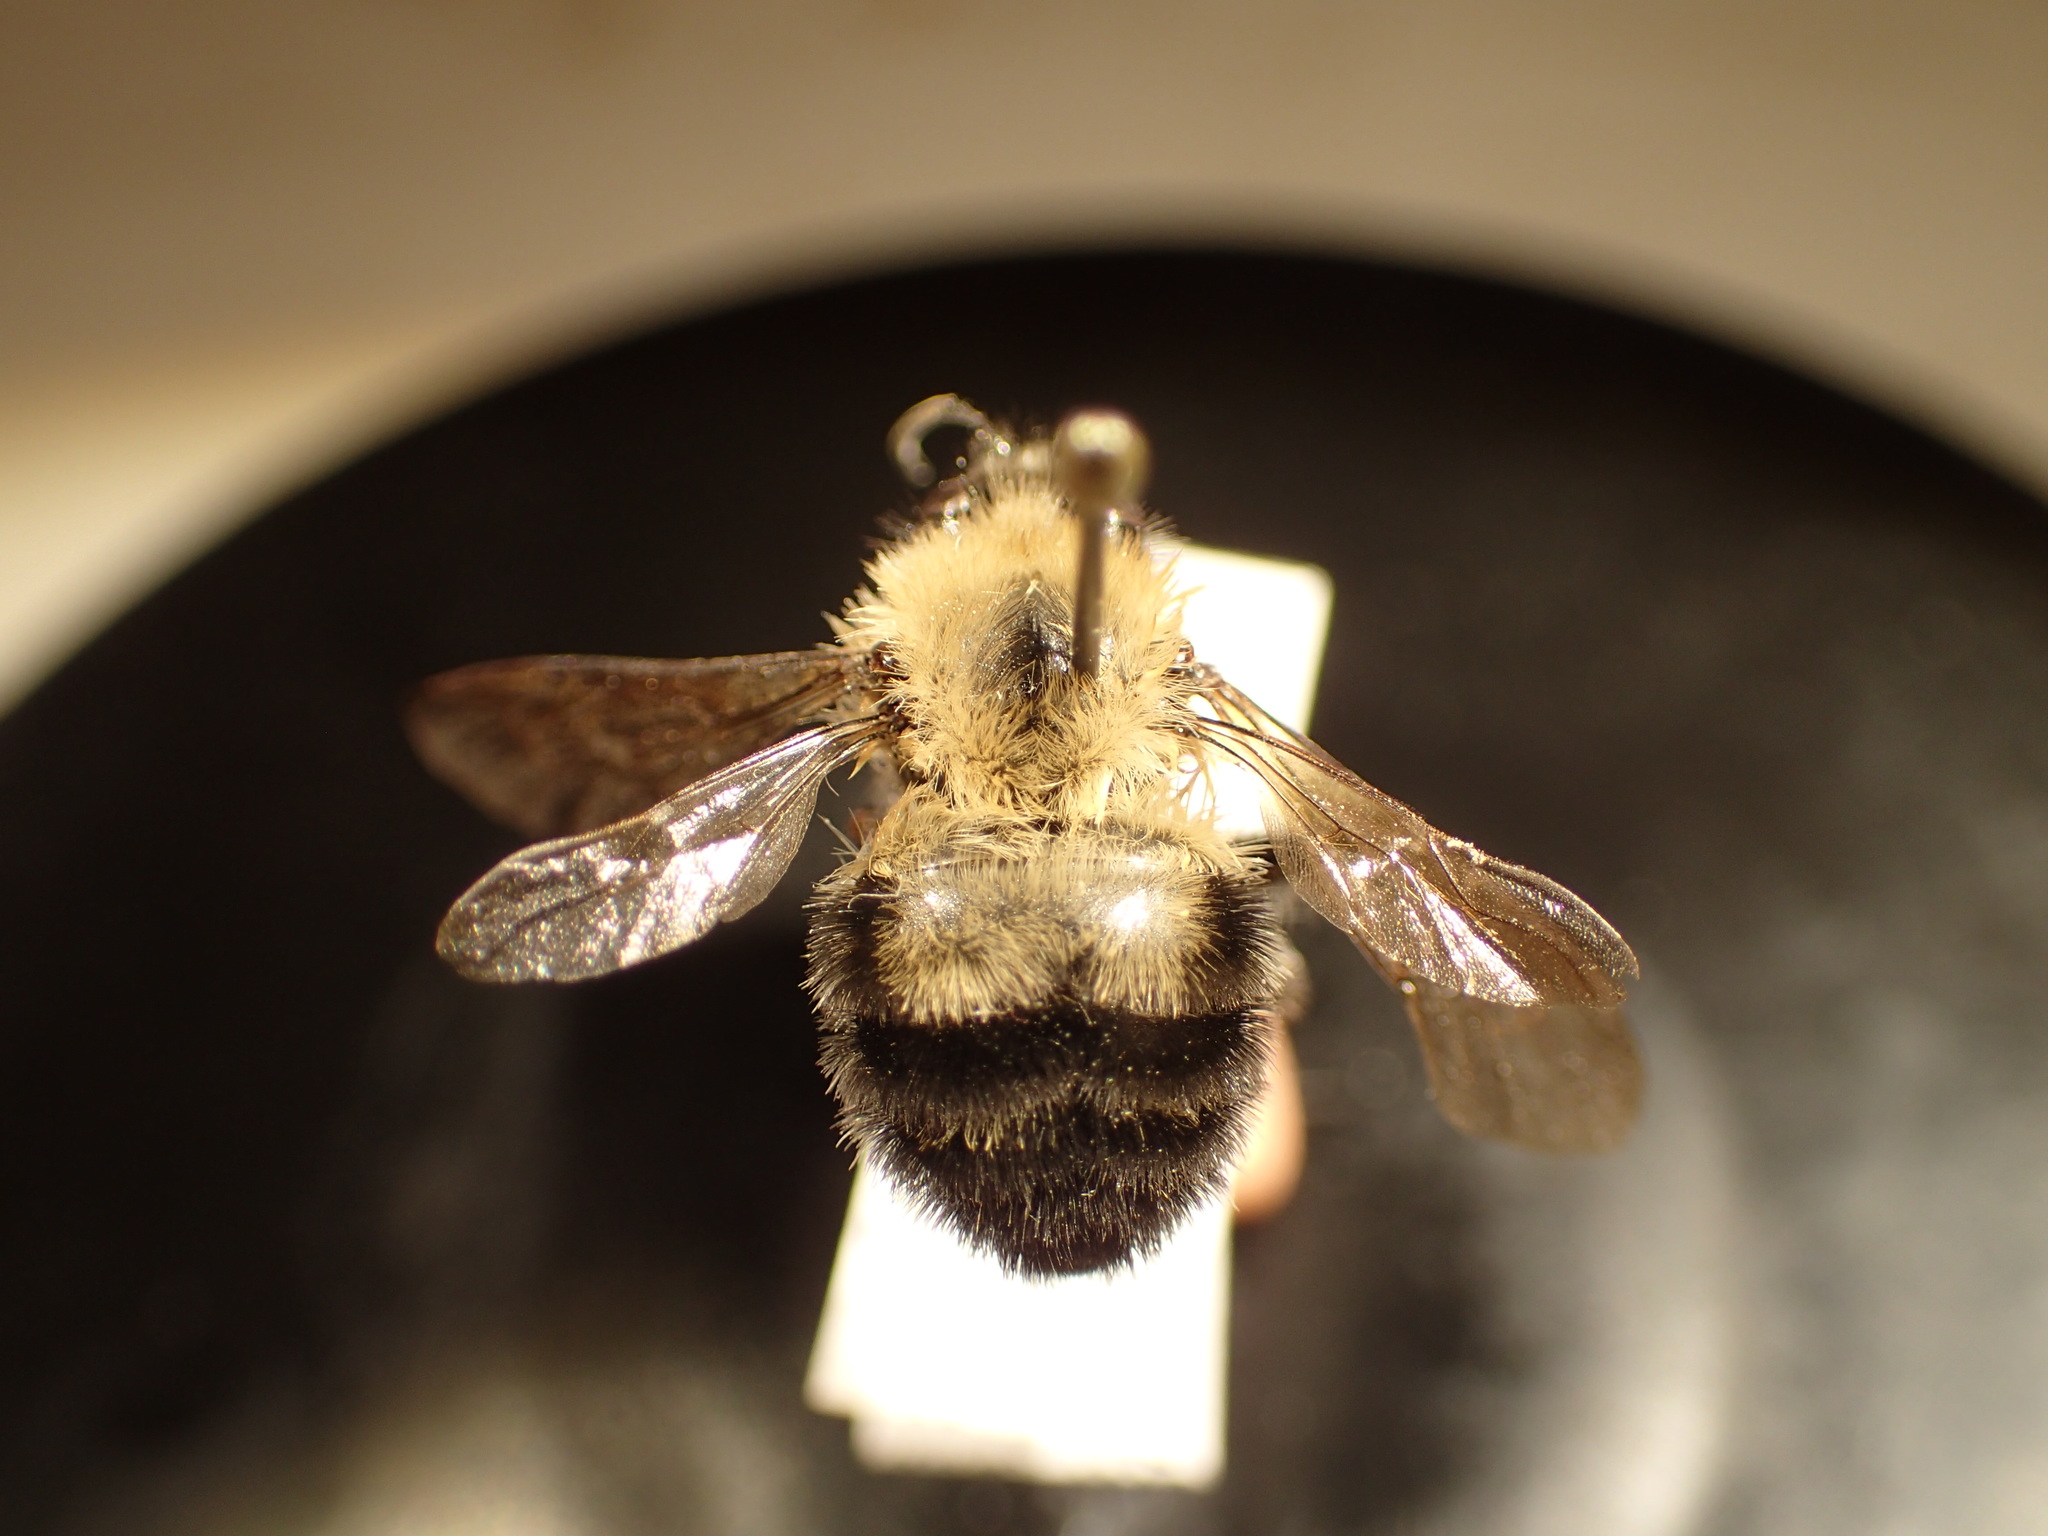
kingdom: Animalia
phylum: Arthropoda
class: Insecta
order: Hymenoptera
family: Apidae
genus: Bombus
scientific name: Bombus bimaculatus
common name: Two-spotted bumble bee
